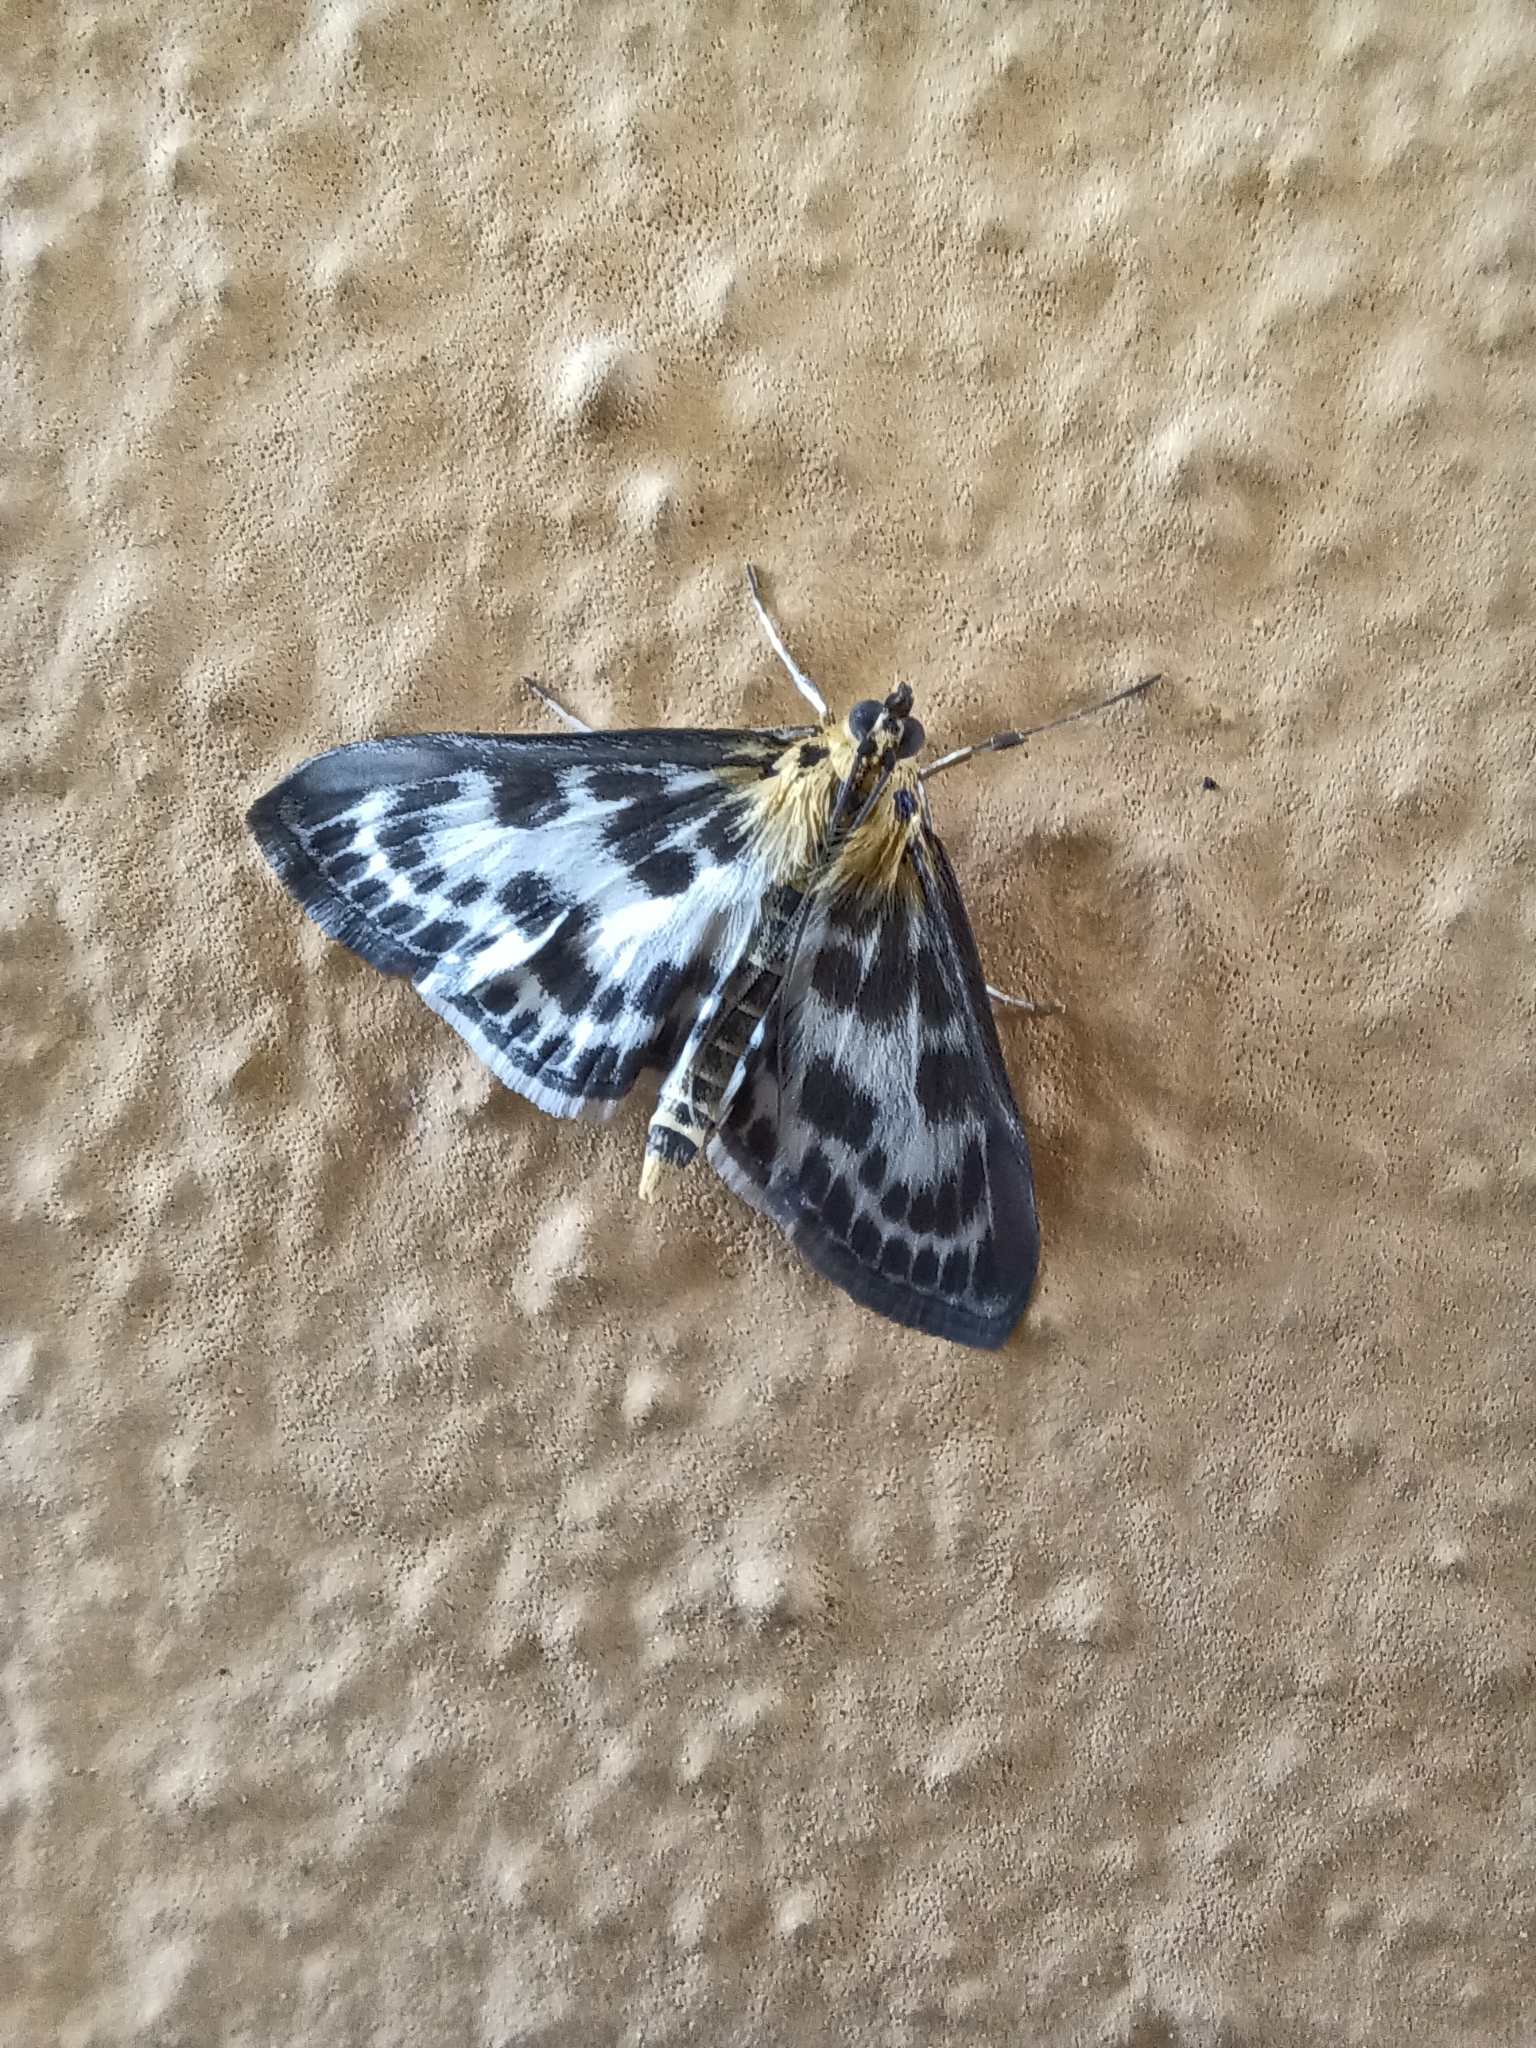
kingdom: Animalia
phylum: Arthropoda
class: Insecta
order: Lepidoptera
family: Crambidae
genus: Anania
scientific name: Anania hortulata
